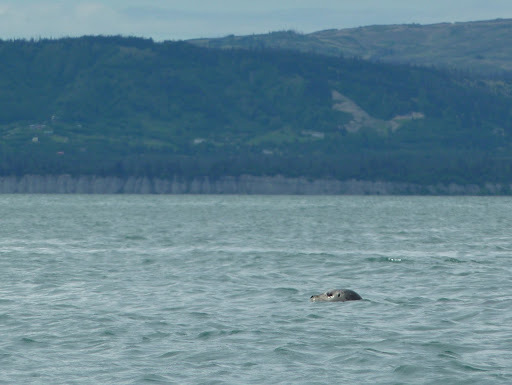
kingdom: Animalia
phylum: Chordata
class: Mammalia
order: Carnivora
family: Phocidae
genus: Phoca
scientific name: Phoca vitulina
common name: Harbor seal
